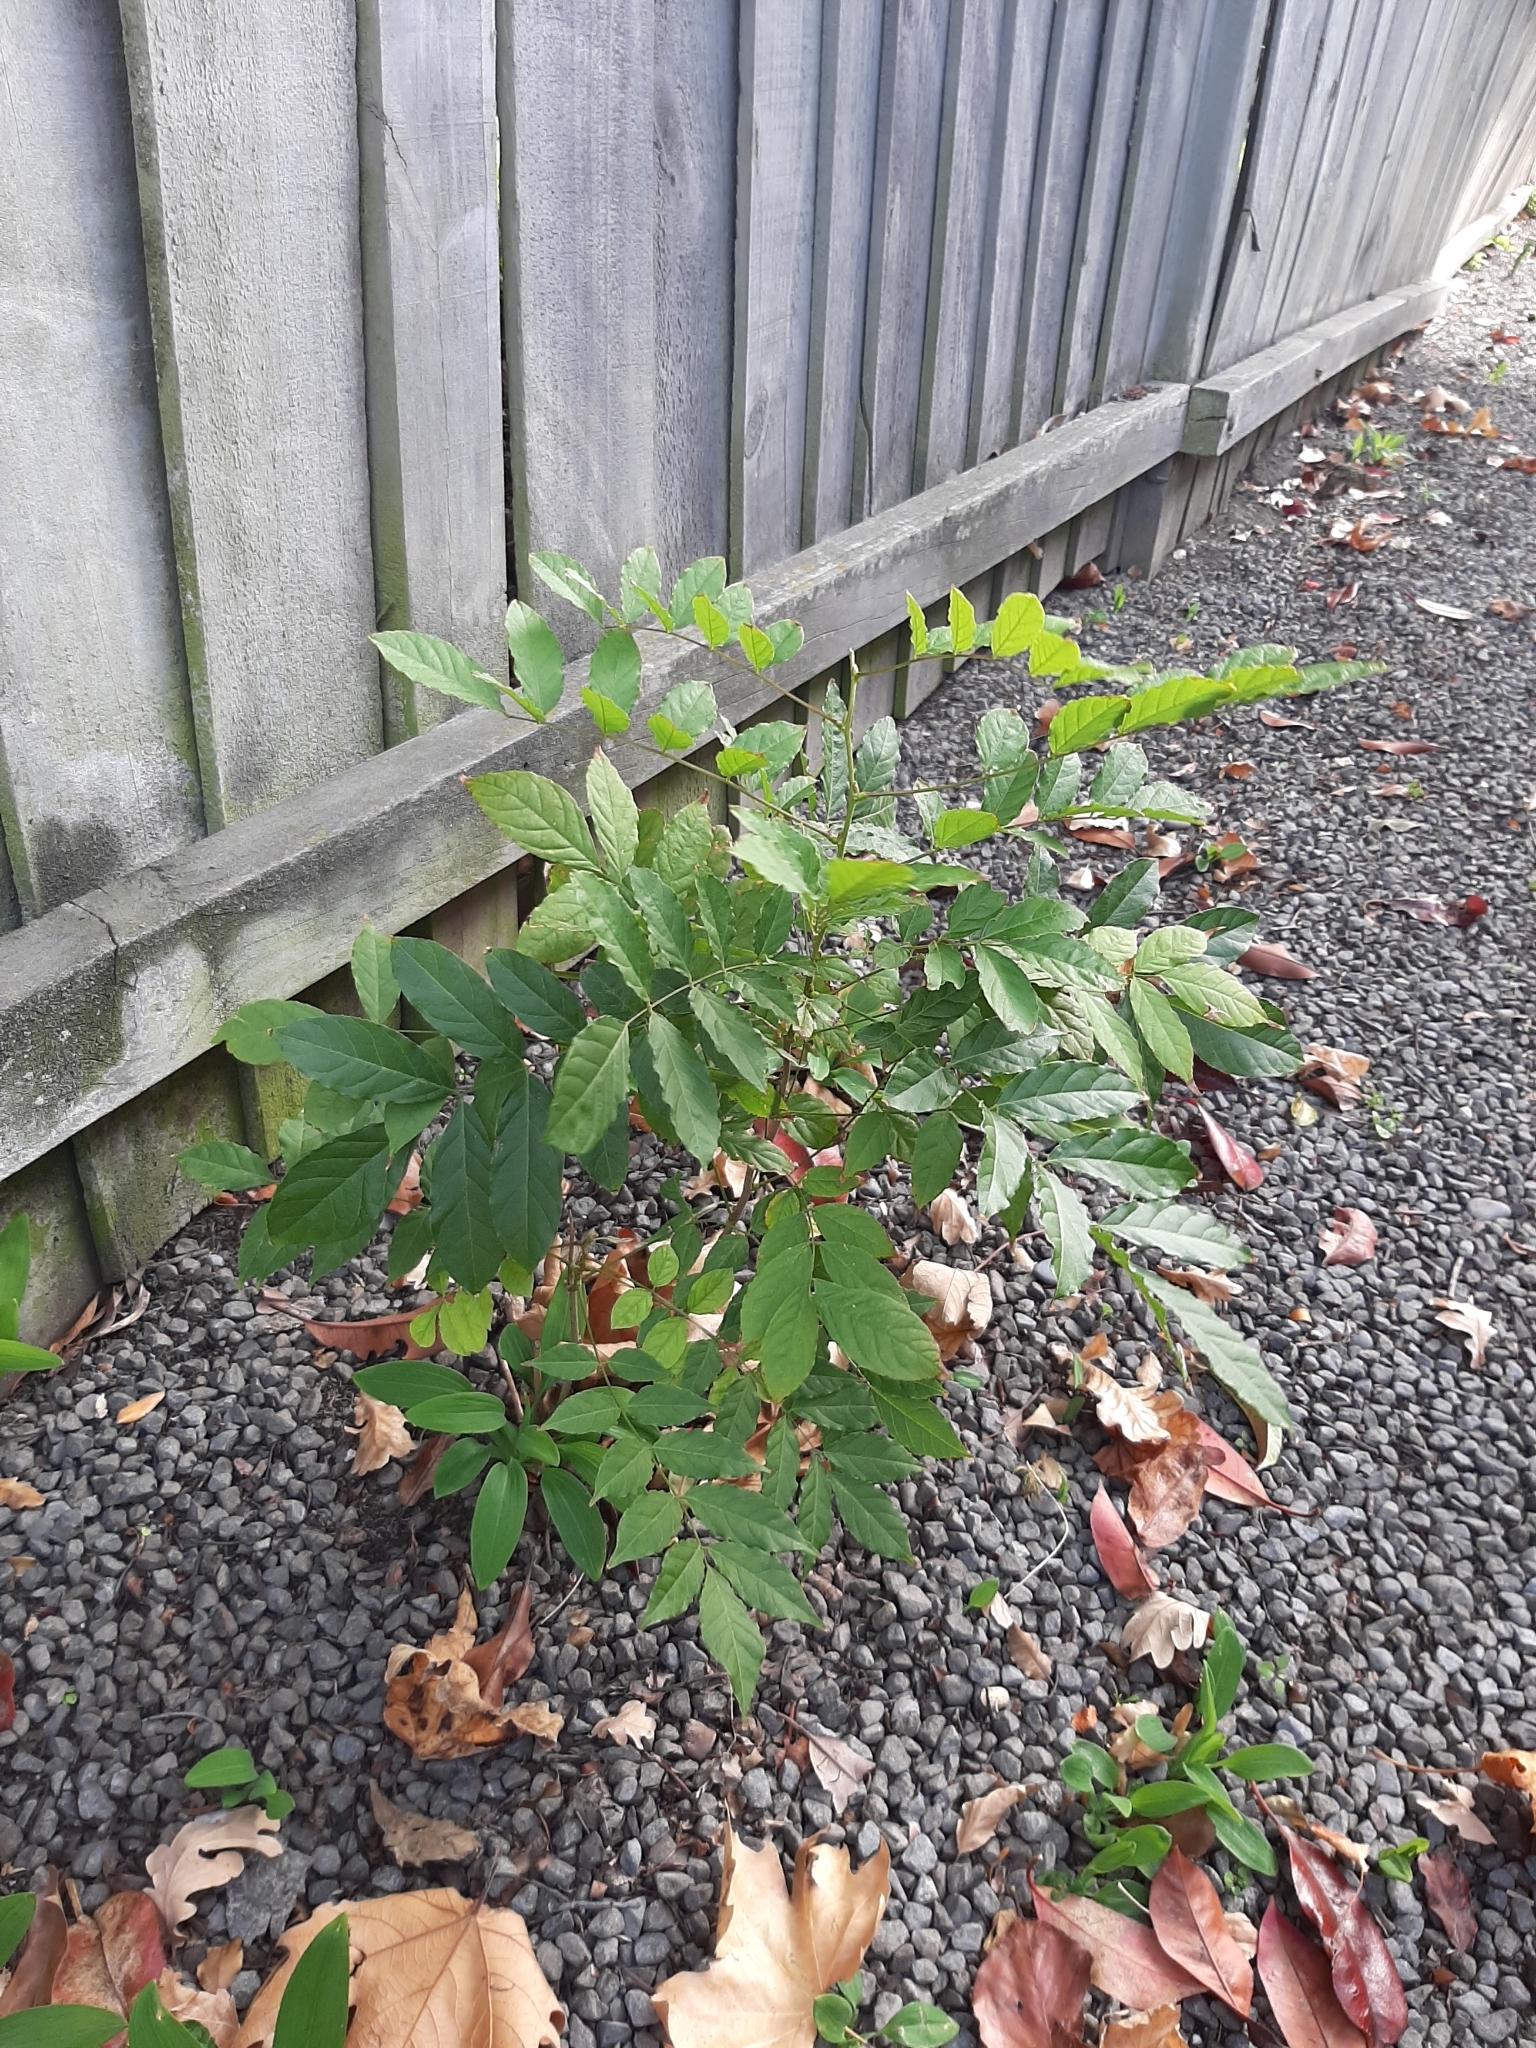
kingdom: Plantae
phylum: Tracheophyta
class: Magnoliopsida
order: Lamiales
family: Oleaceae
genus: Fraxinus
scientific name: Fraxinus excelsior
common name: European ash
